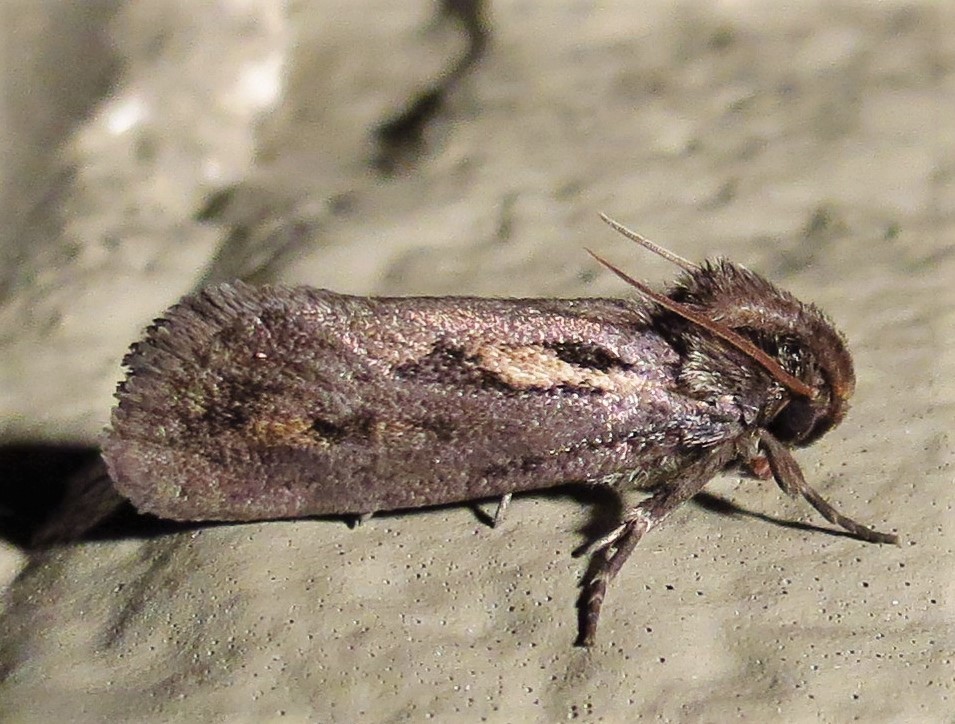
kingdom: Animalia
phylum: Arthropoda
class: Insecta
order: Lepidoptera
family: Tineidae
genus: Acrolophus
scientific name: Acrolophus popeanella
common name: Clemens' grass tubeworm moth
